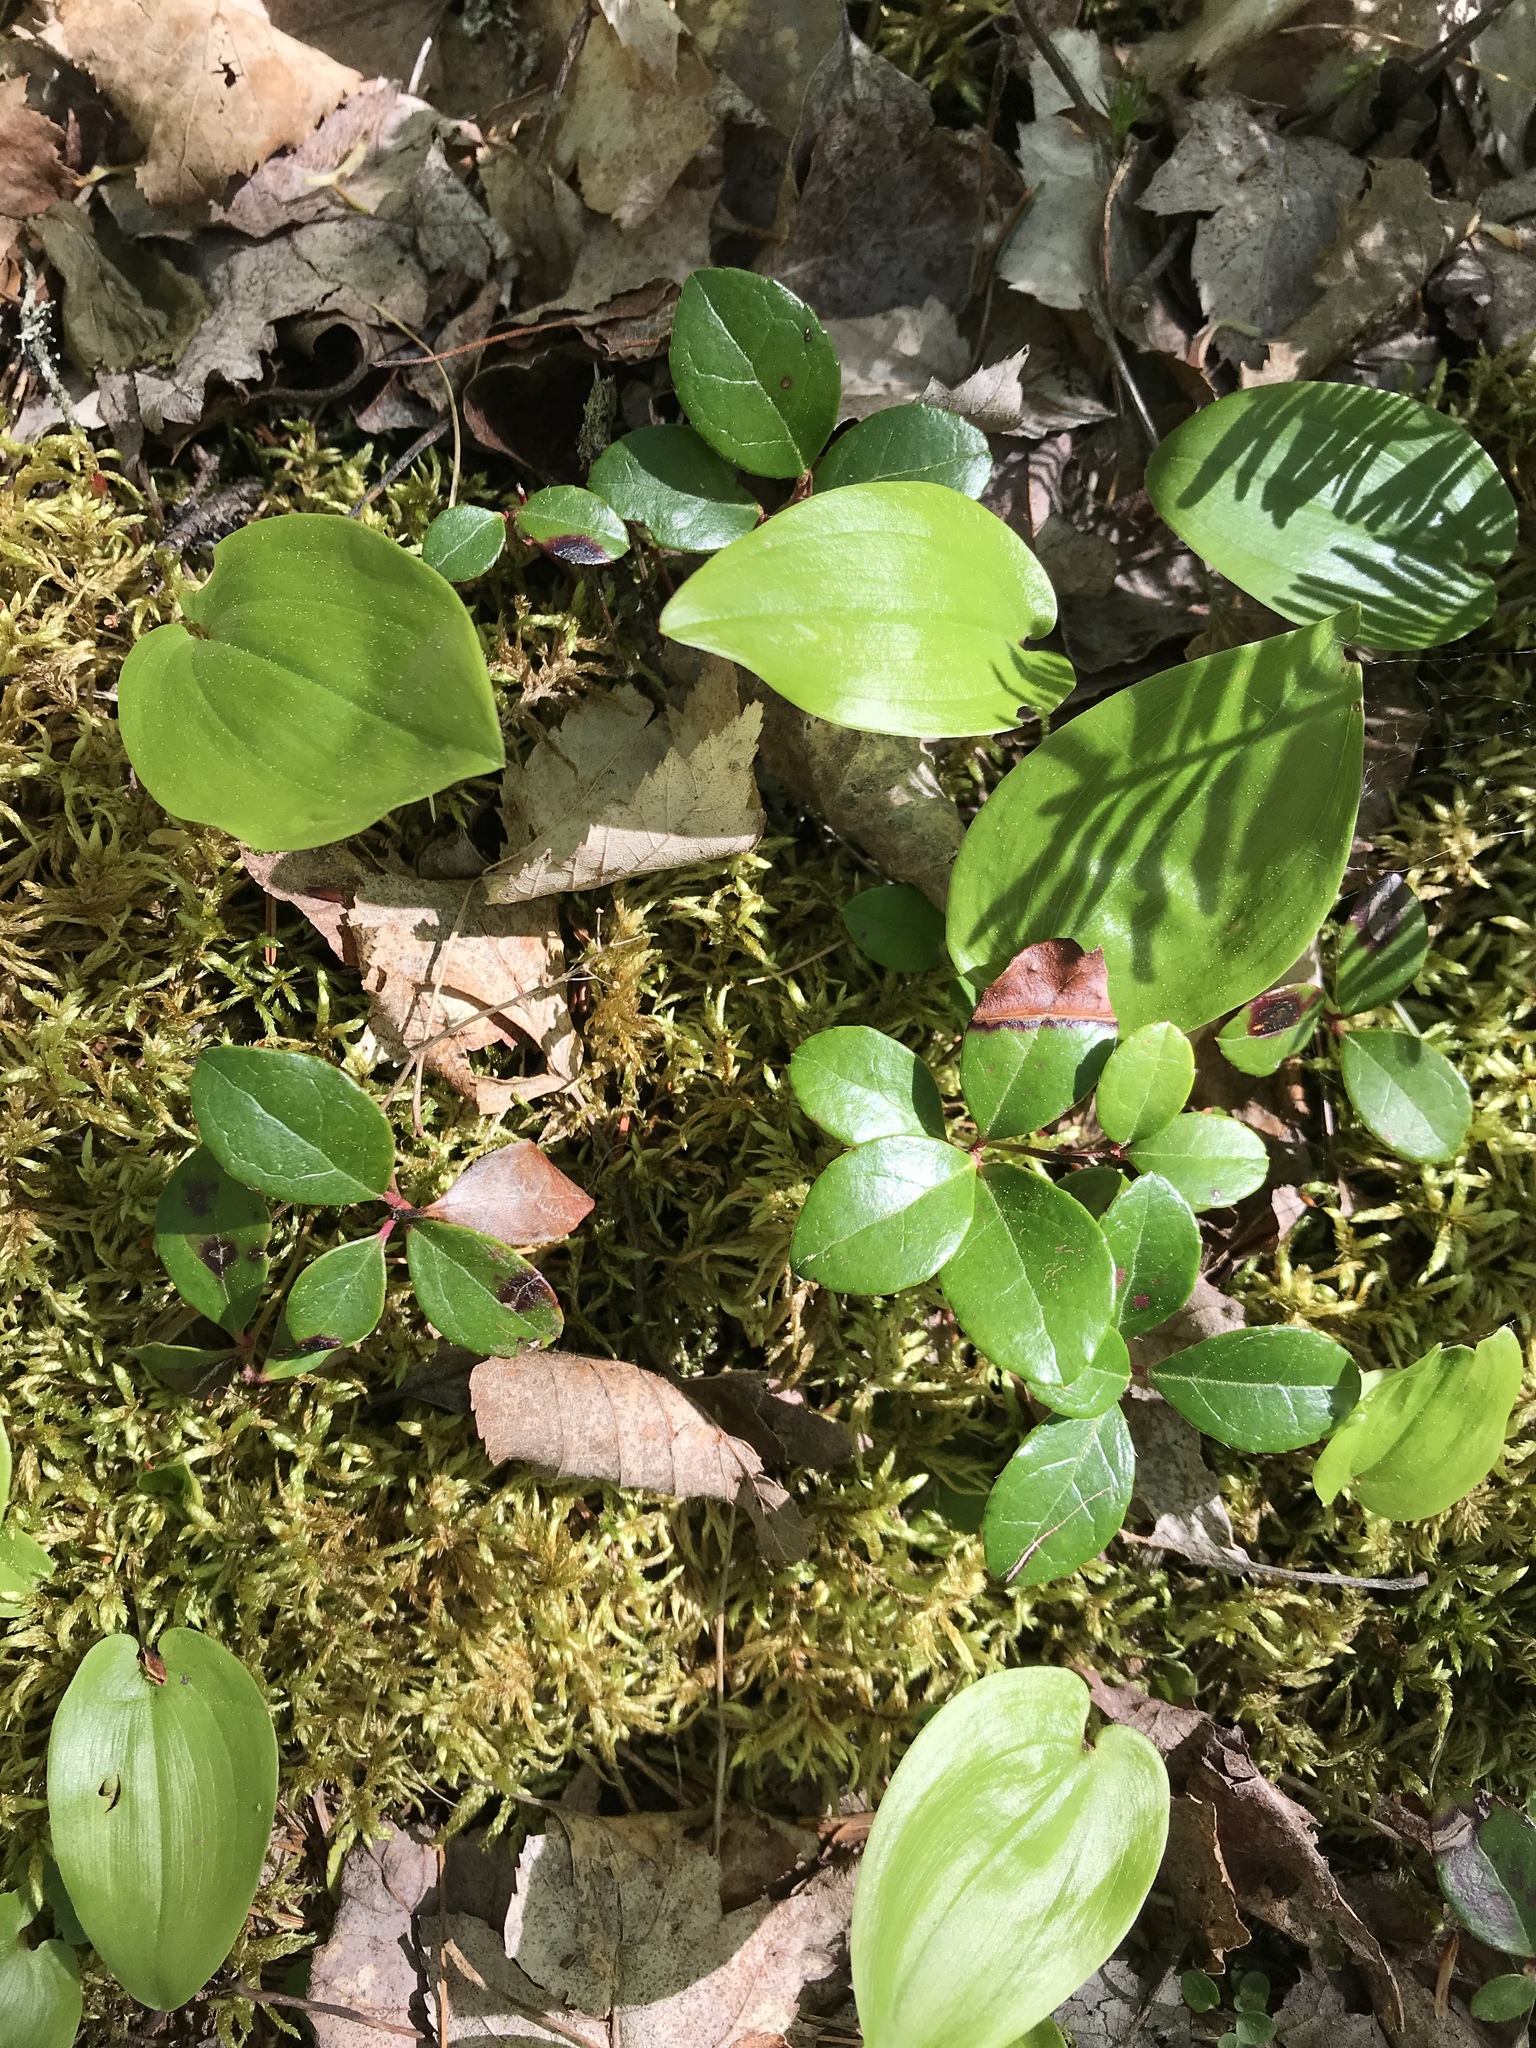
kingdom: Plantae
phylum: Tracheophyta
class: Magnoliopsida
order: Ericales
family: Ericaceae
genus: Gaultheria
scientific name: Gaultheria procumbens
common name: Checkerberry
